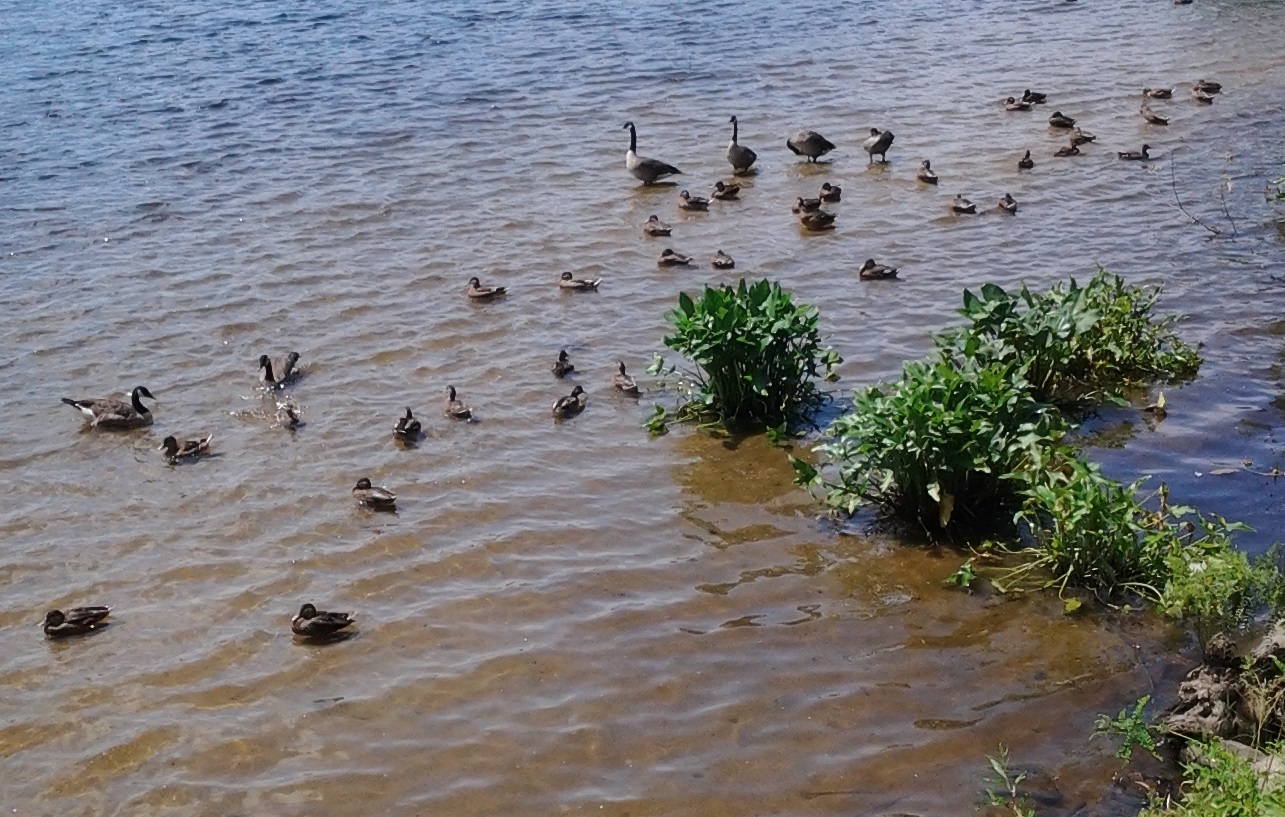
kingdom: Animalia
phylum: Chordata
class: Aves
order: Anseriformes
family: Anatidae
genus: Branta
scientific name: Branta canadensis
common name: Canada goose
